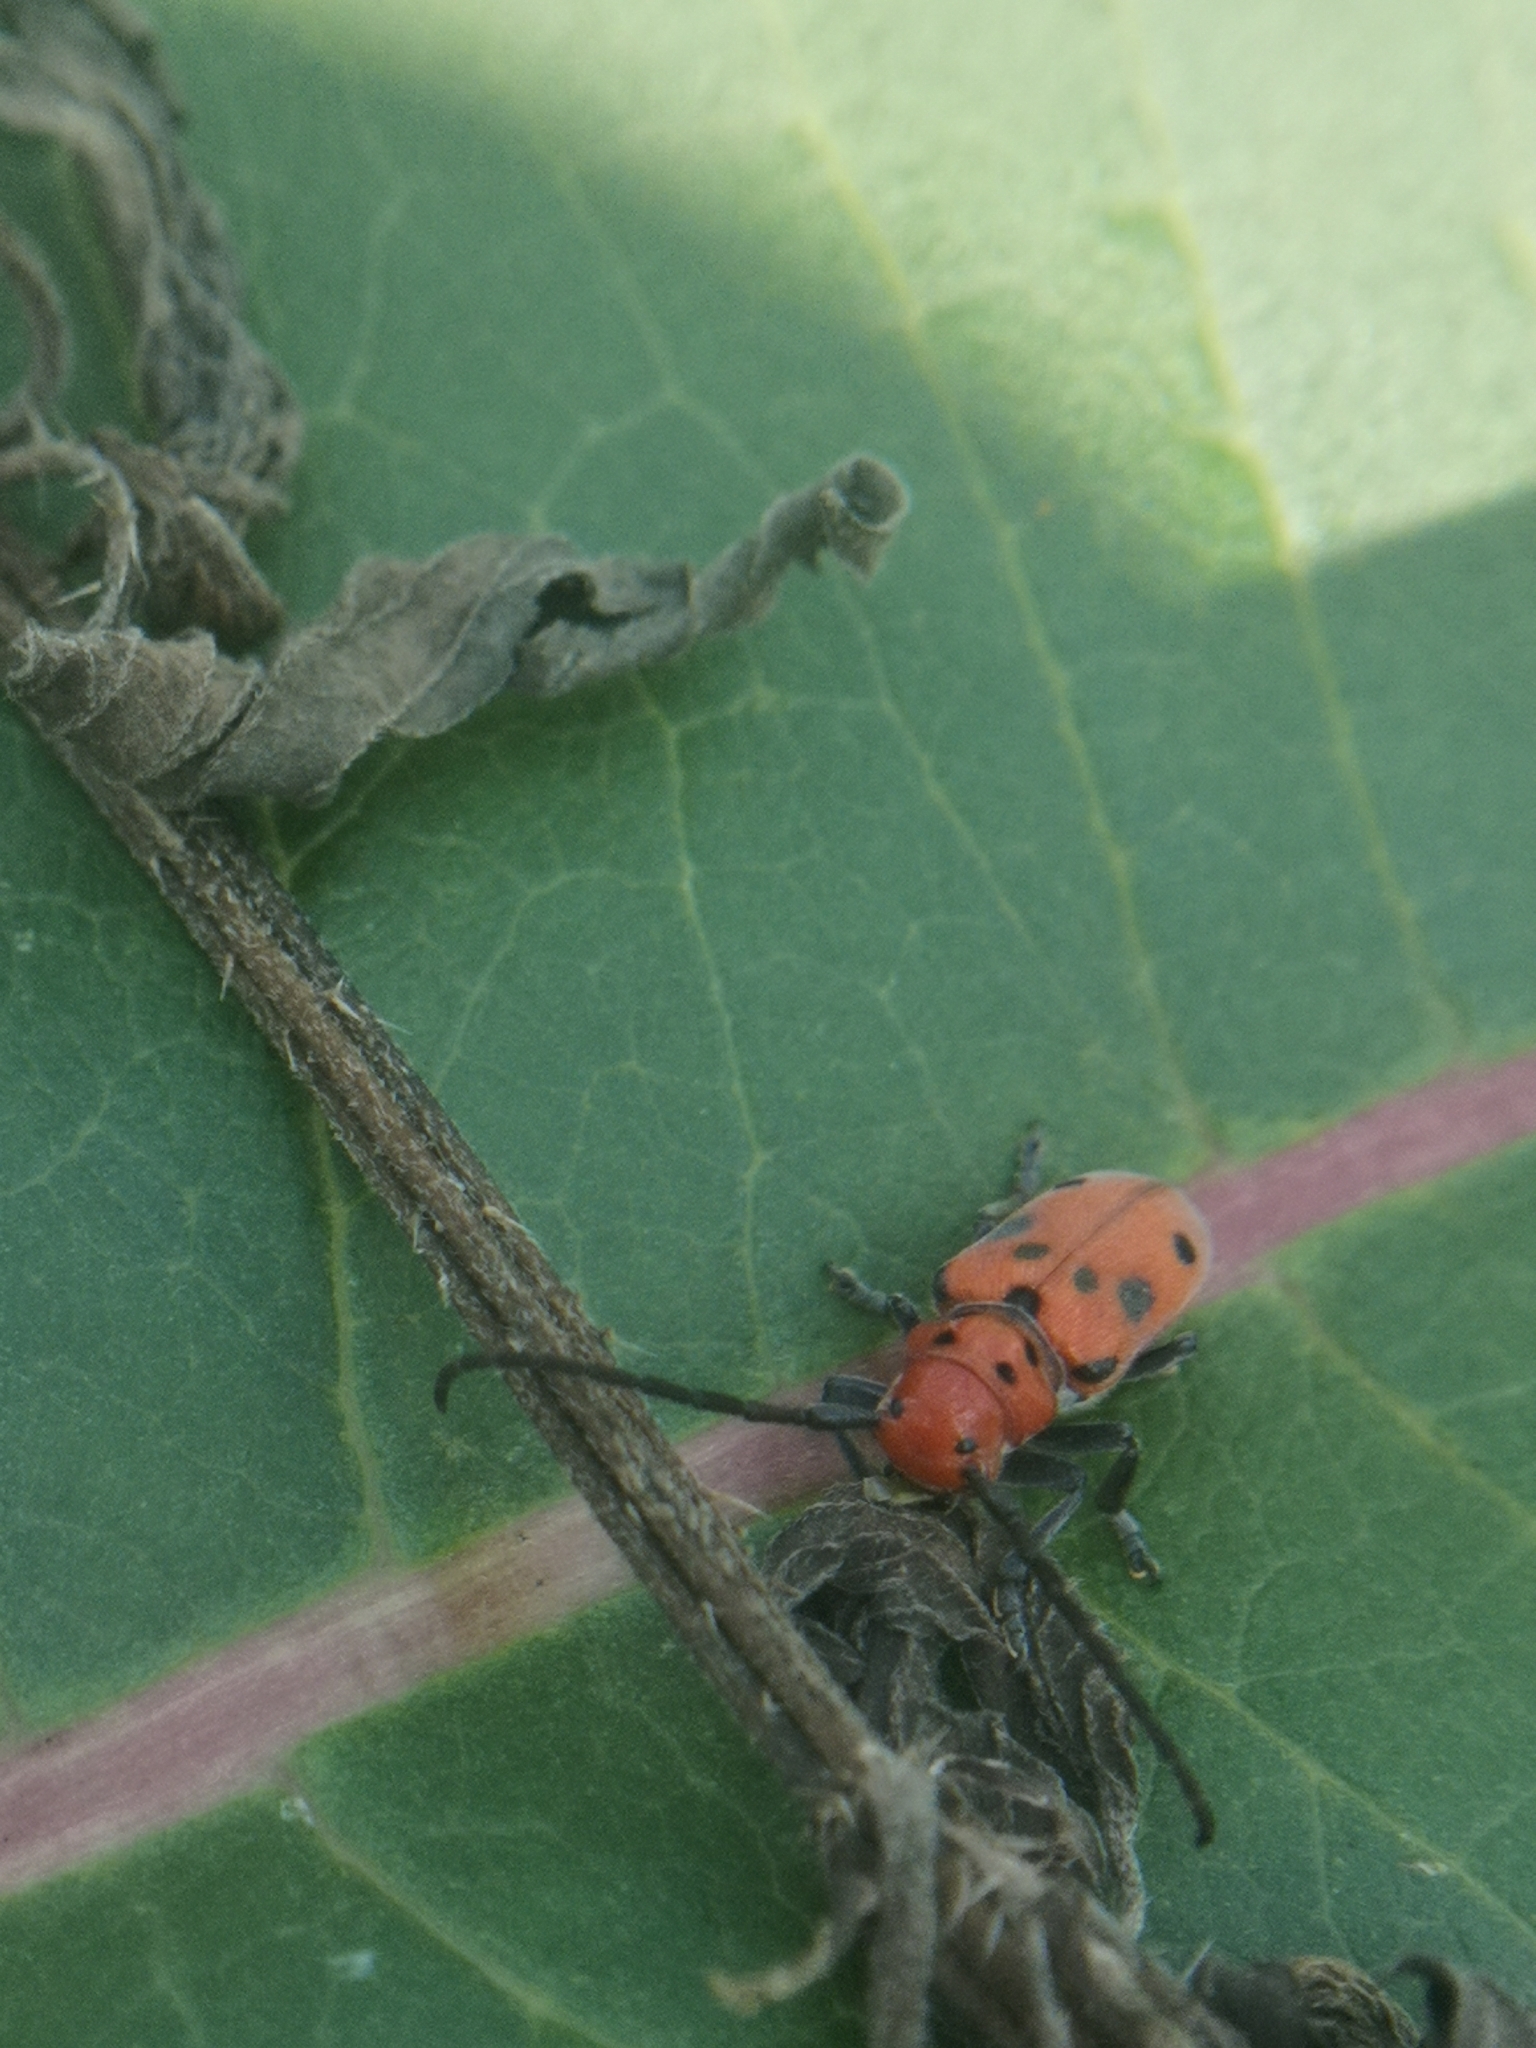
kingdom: Animalia
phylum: Arthropoda
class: Insecta
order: Coleoptera
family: Cerambycidae
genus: Tetraopes
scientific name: Tetraopes tetrophthalmus
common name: Red milkweed beetle
